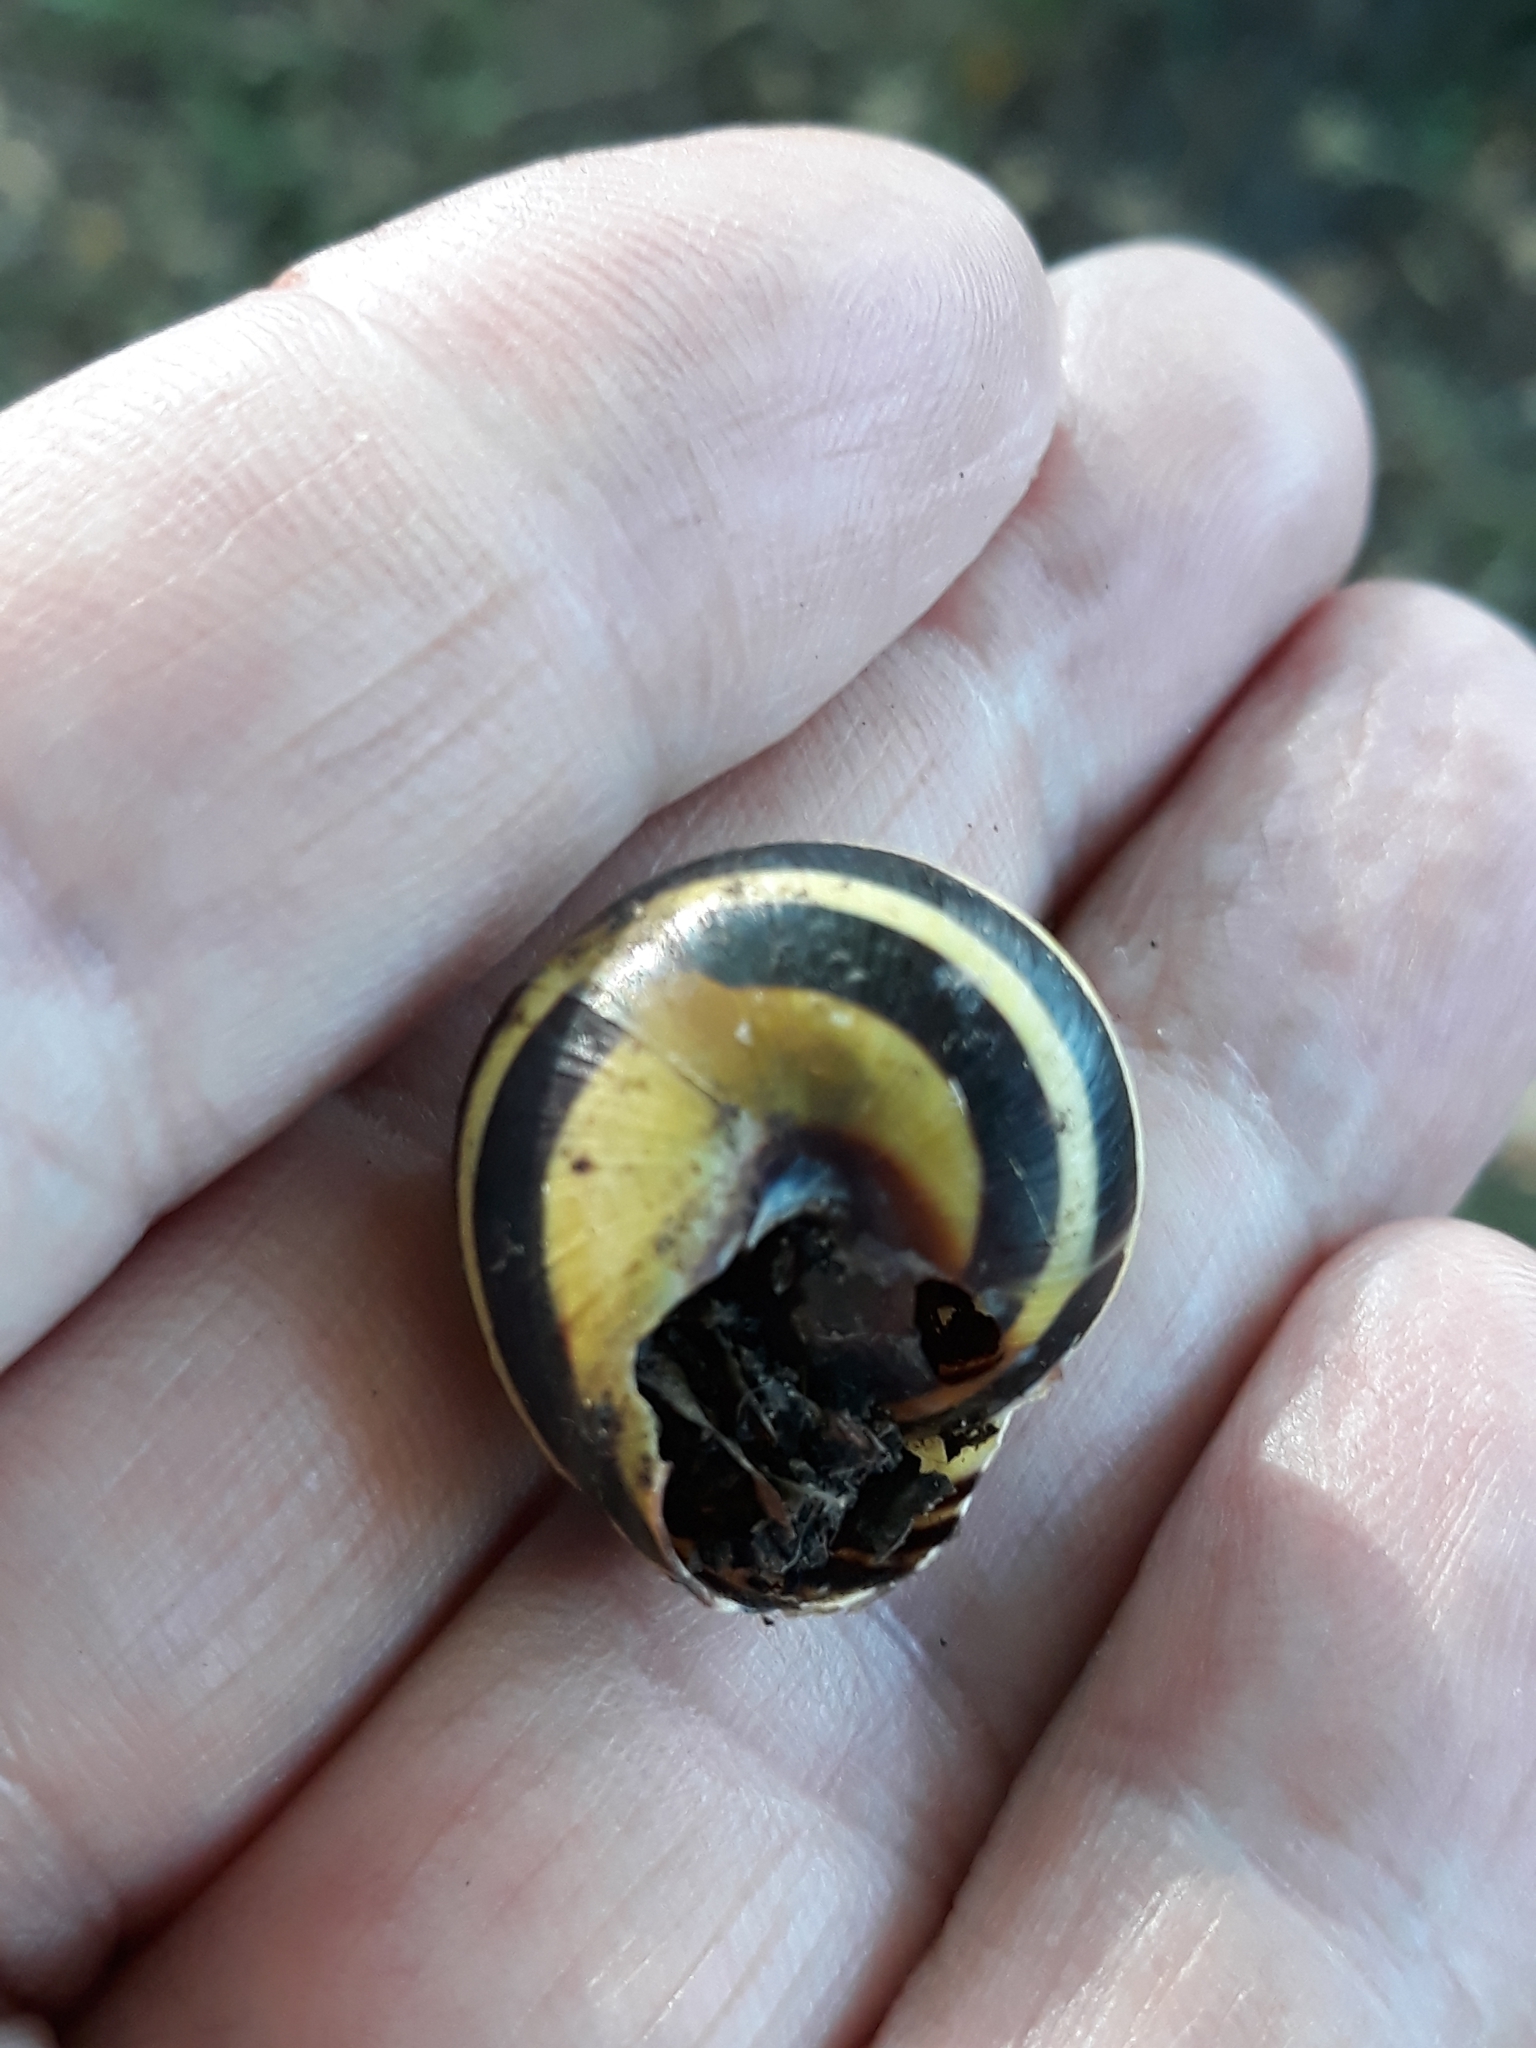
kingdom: Animalia
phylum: Mollusca
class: Gastropoda
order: Stylommatophora
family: Helicidae
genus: Cepaea
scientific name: Cepaea nemoralis
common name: Grovesnail
